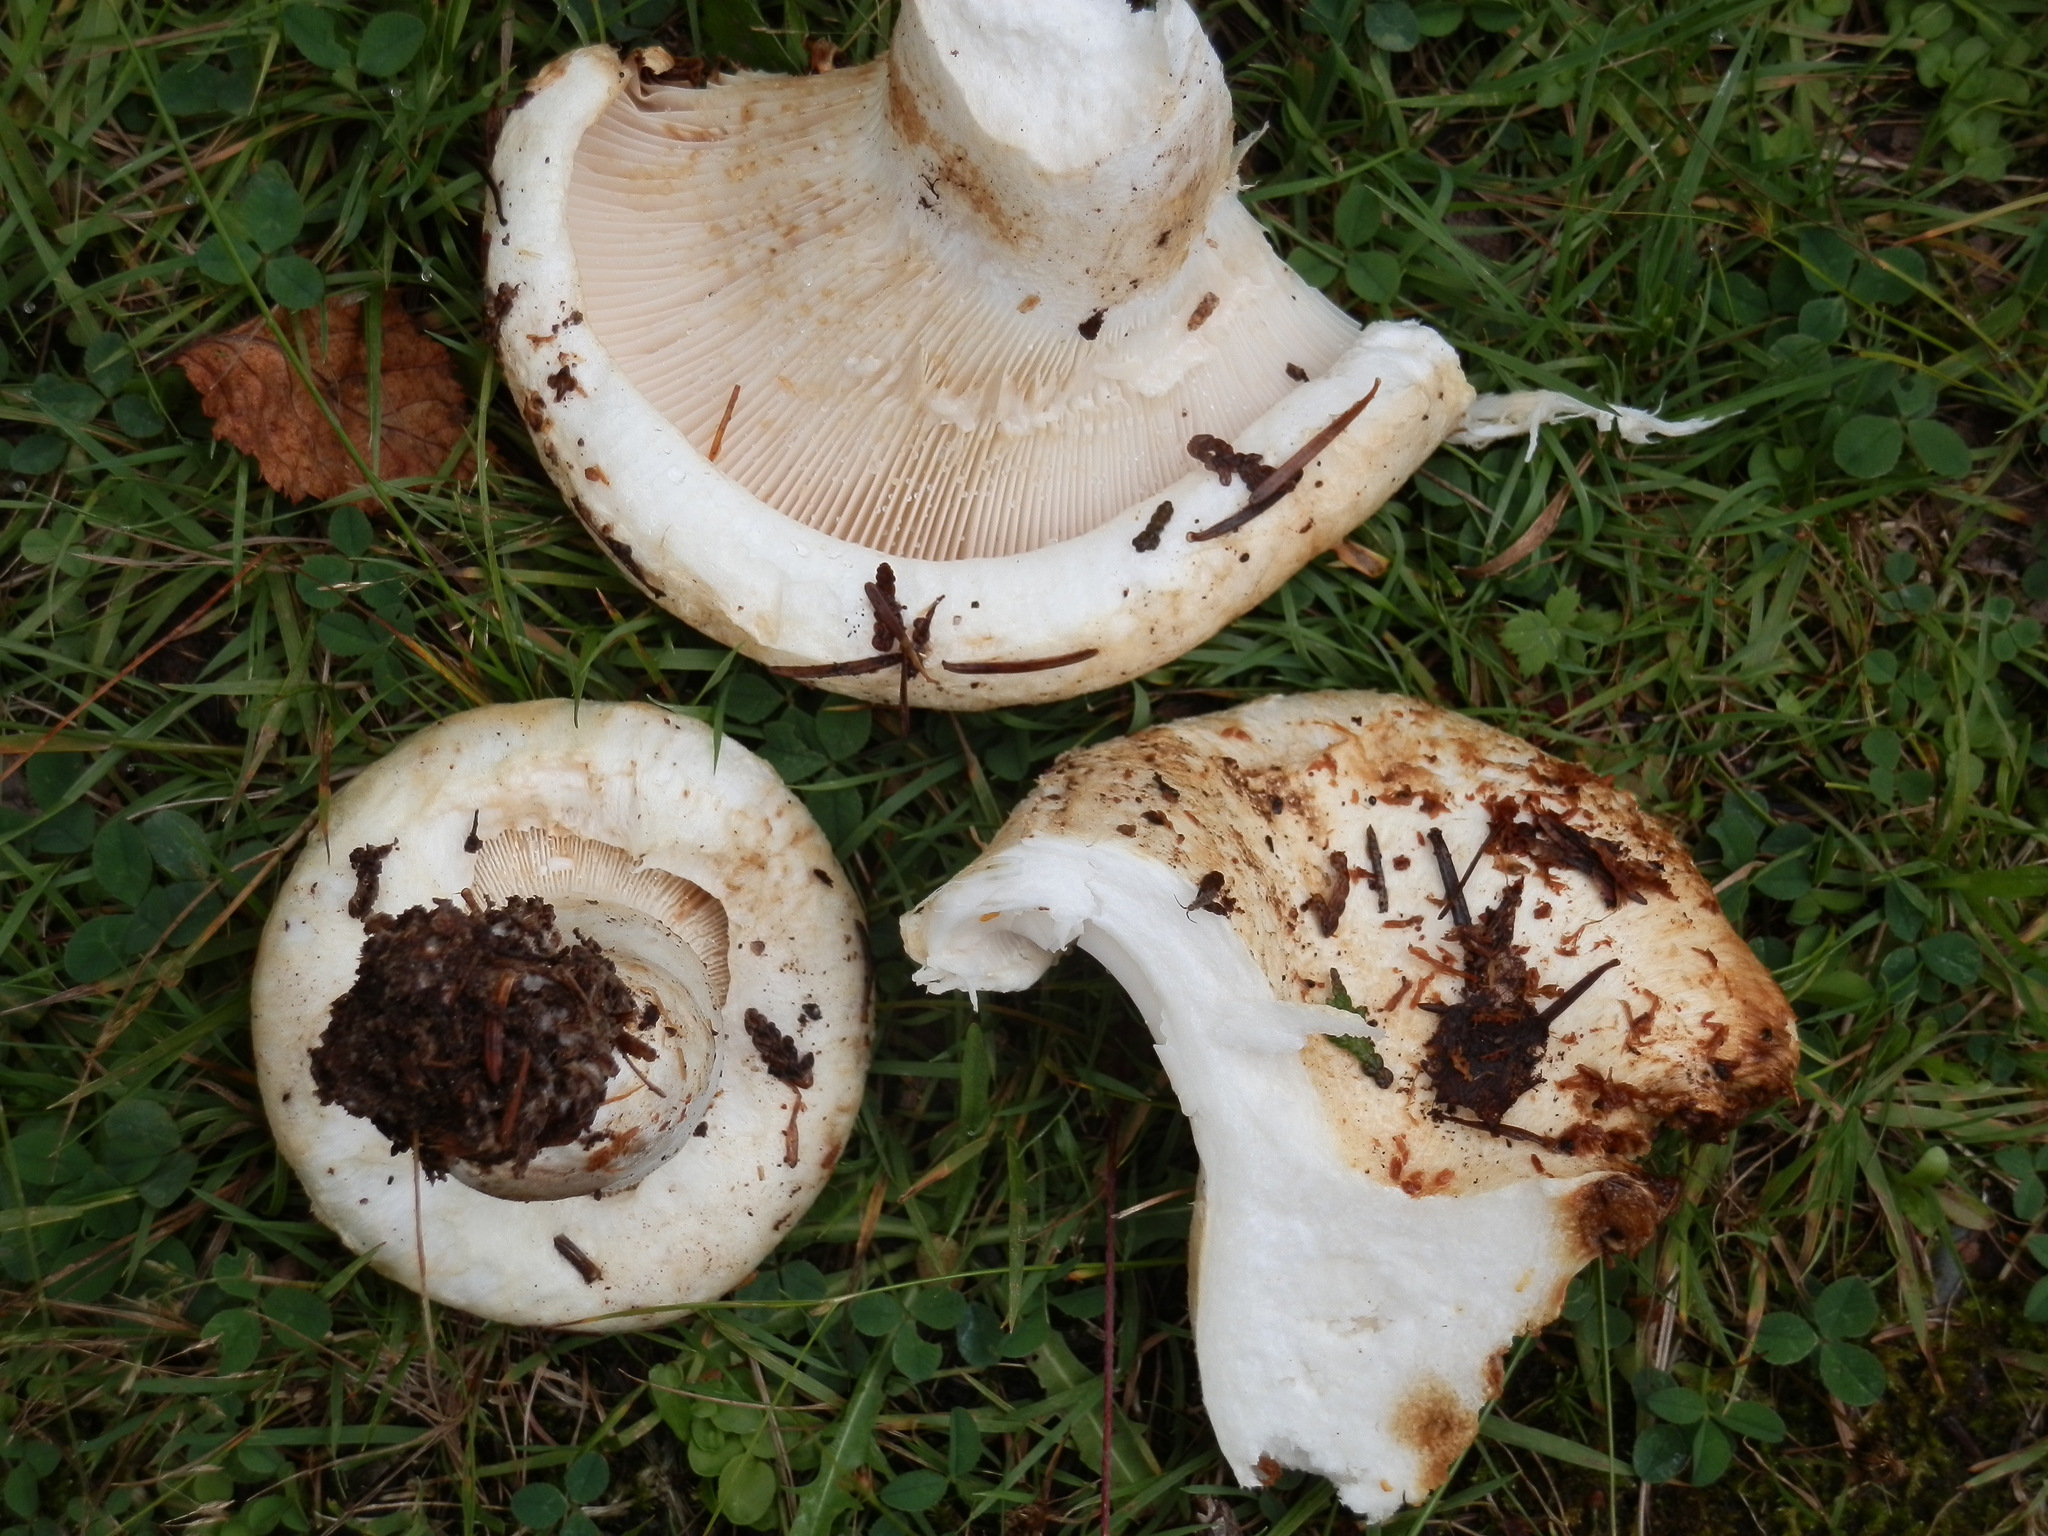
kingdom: Fungi
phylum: Basidiomycota
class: Agaricomycetes
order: Russulales
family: Russulaceae
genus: Lactifluus
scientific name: Lactifluus
